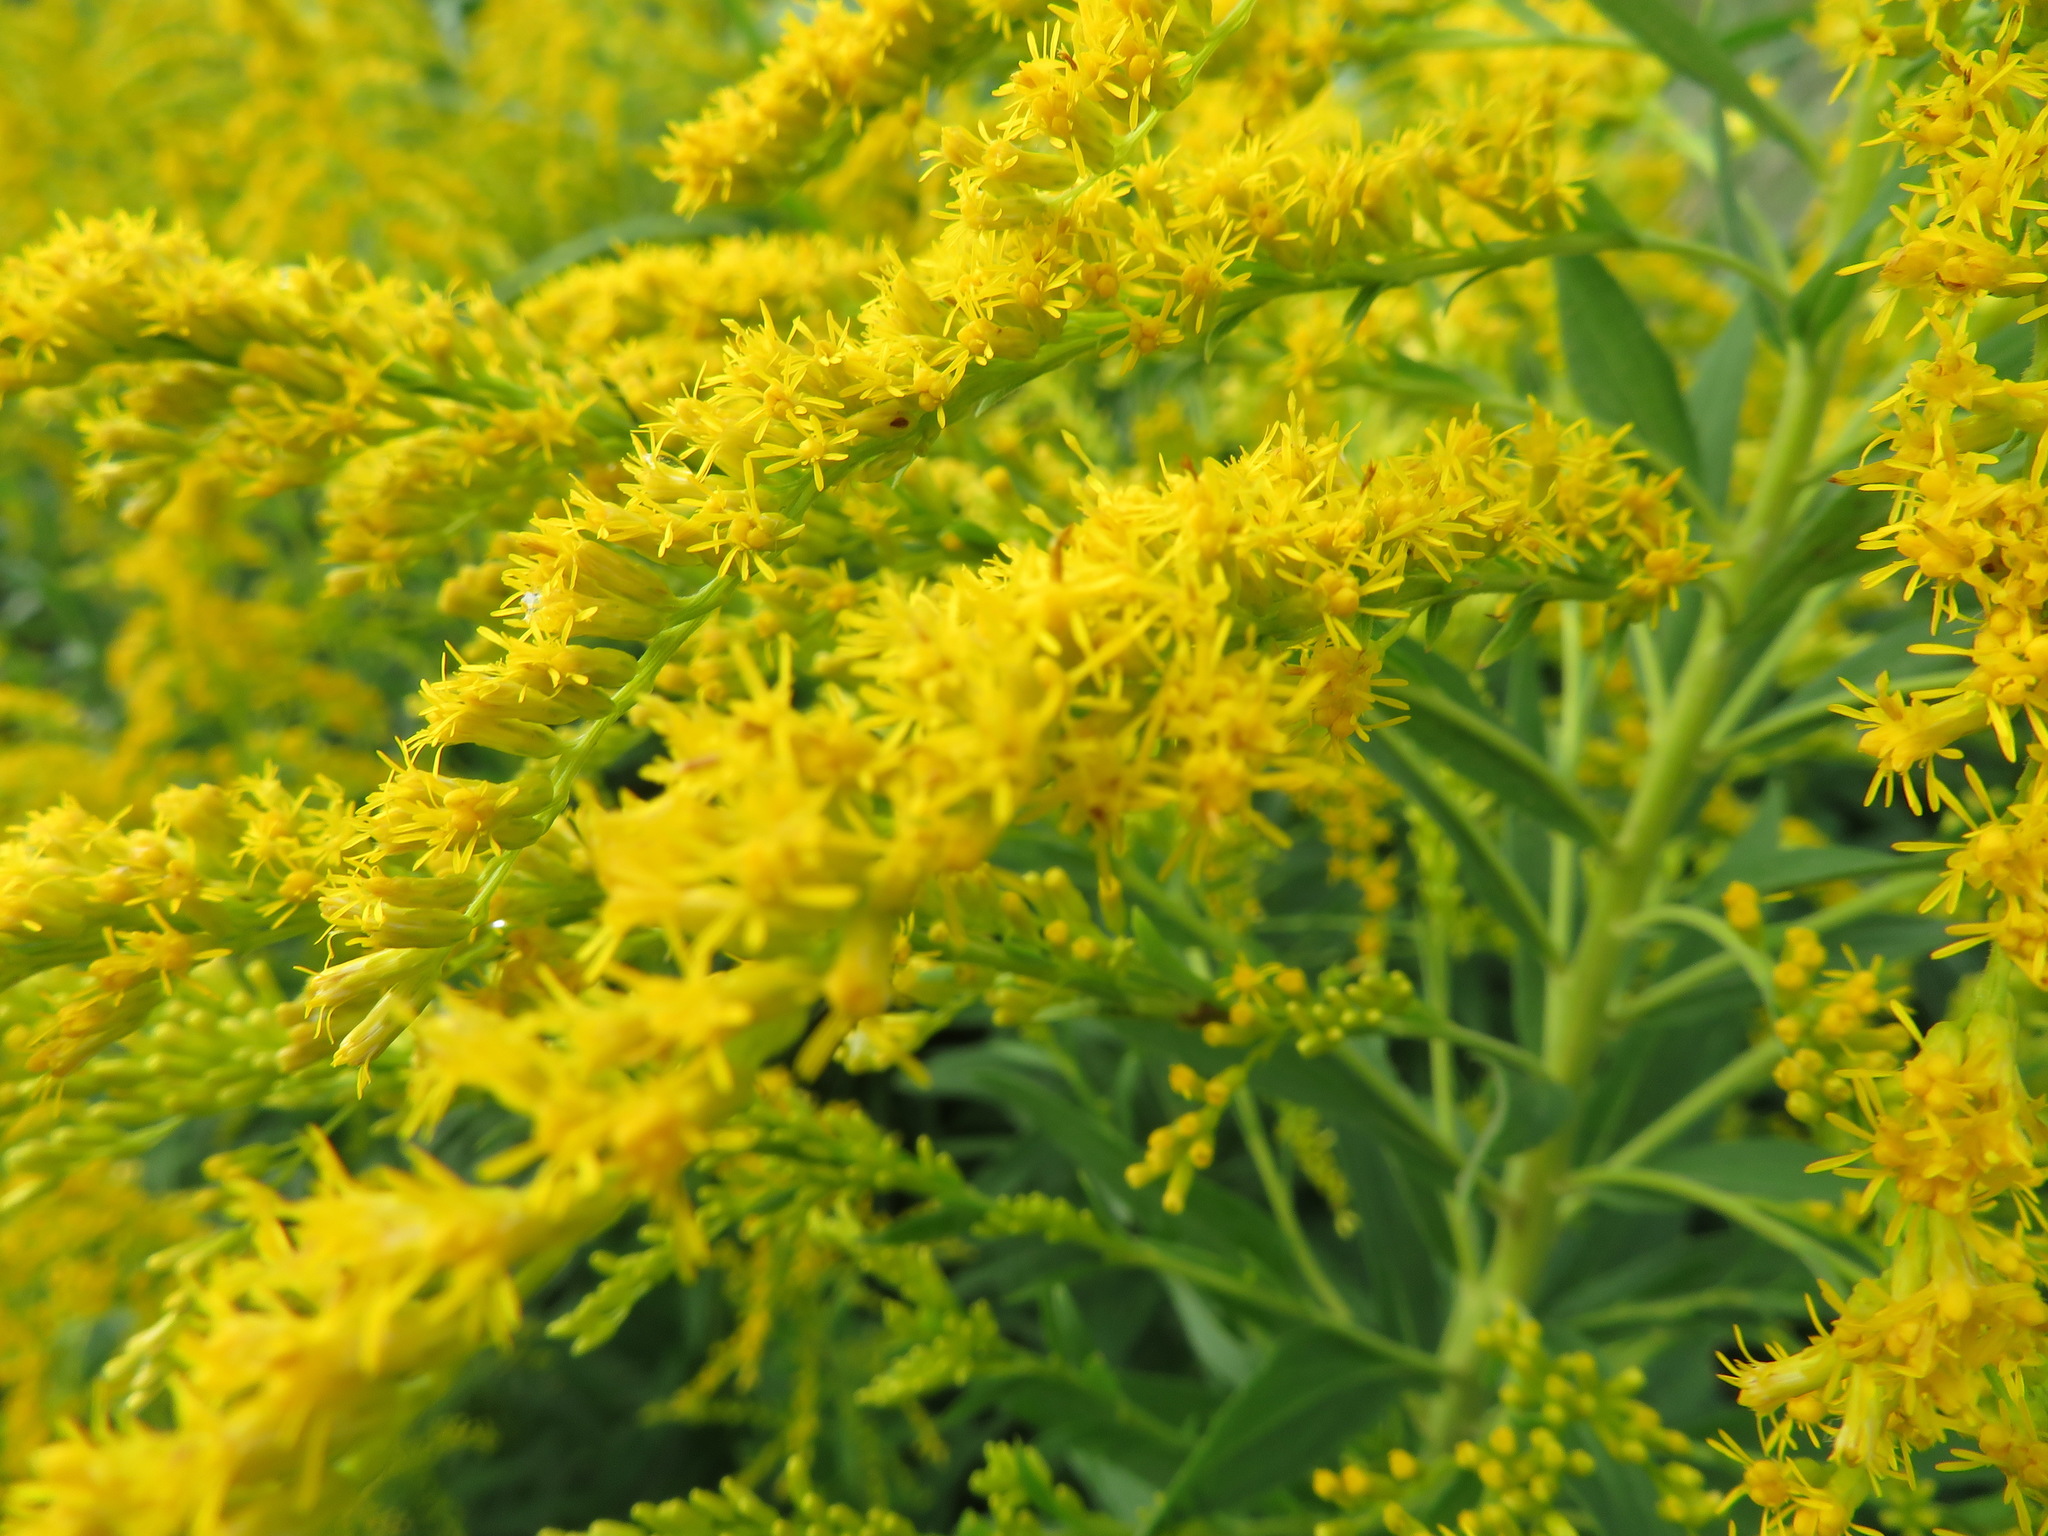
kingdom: Plantae
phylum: Tracheophyta
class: Magnoliopsida
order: Asterales
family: Asteraceae
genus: Solidago
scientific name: Solidago altissima
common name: Late goldenrod
